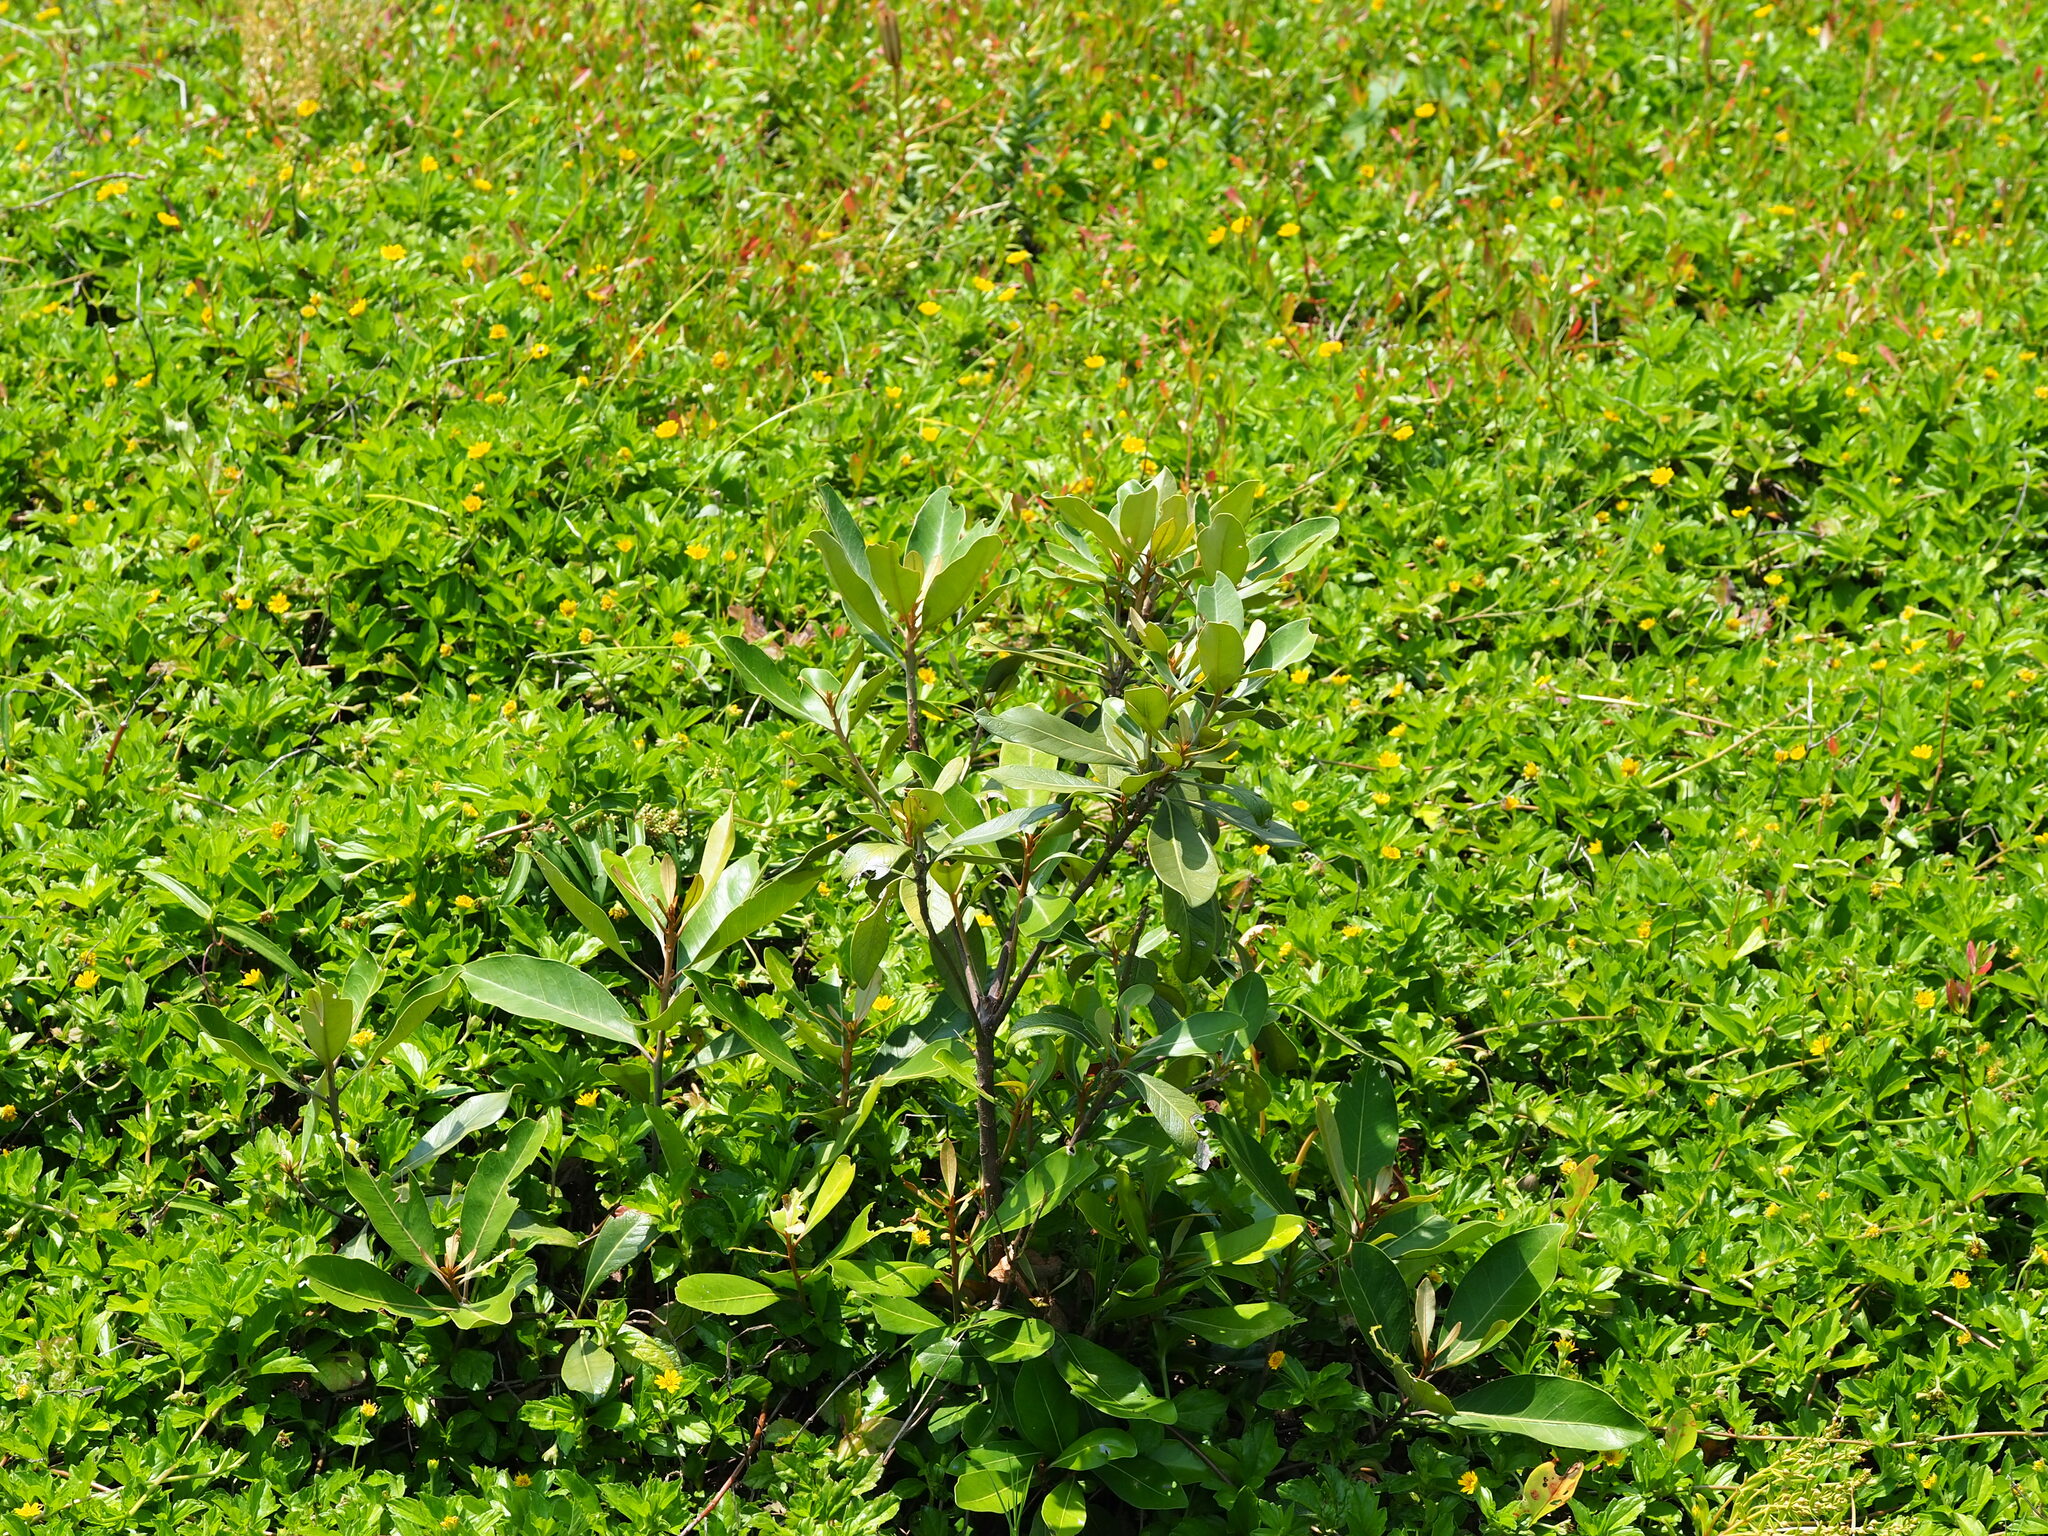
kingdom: Plantae
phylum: Tracheophyta
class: Magnoliopsida
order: Ericales
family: Sapotaceae
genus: Planchonella
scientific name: Planchonella obovata
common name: Black-ash
